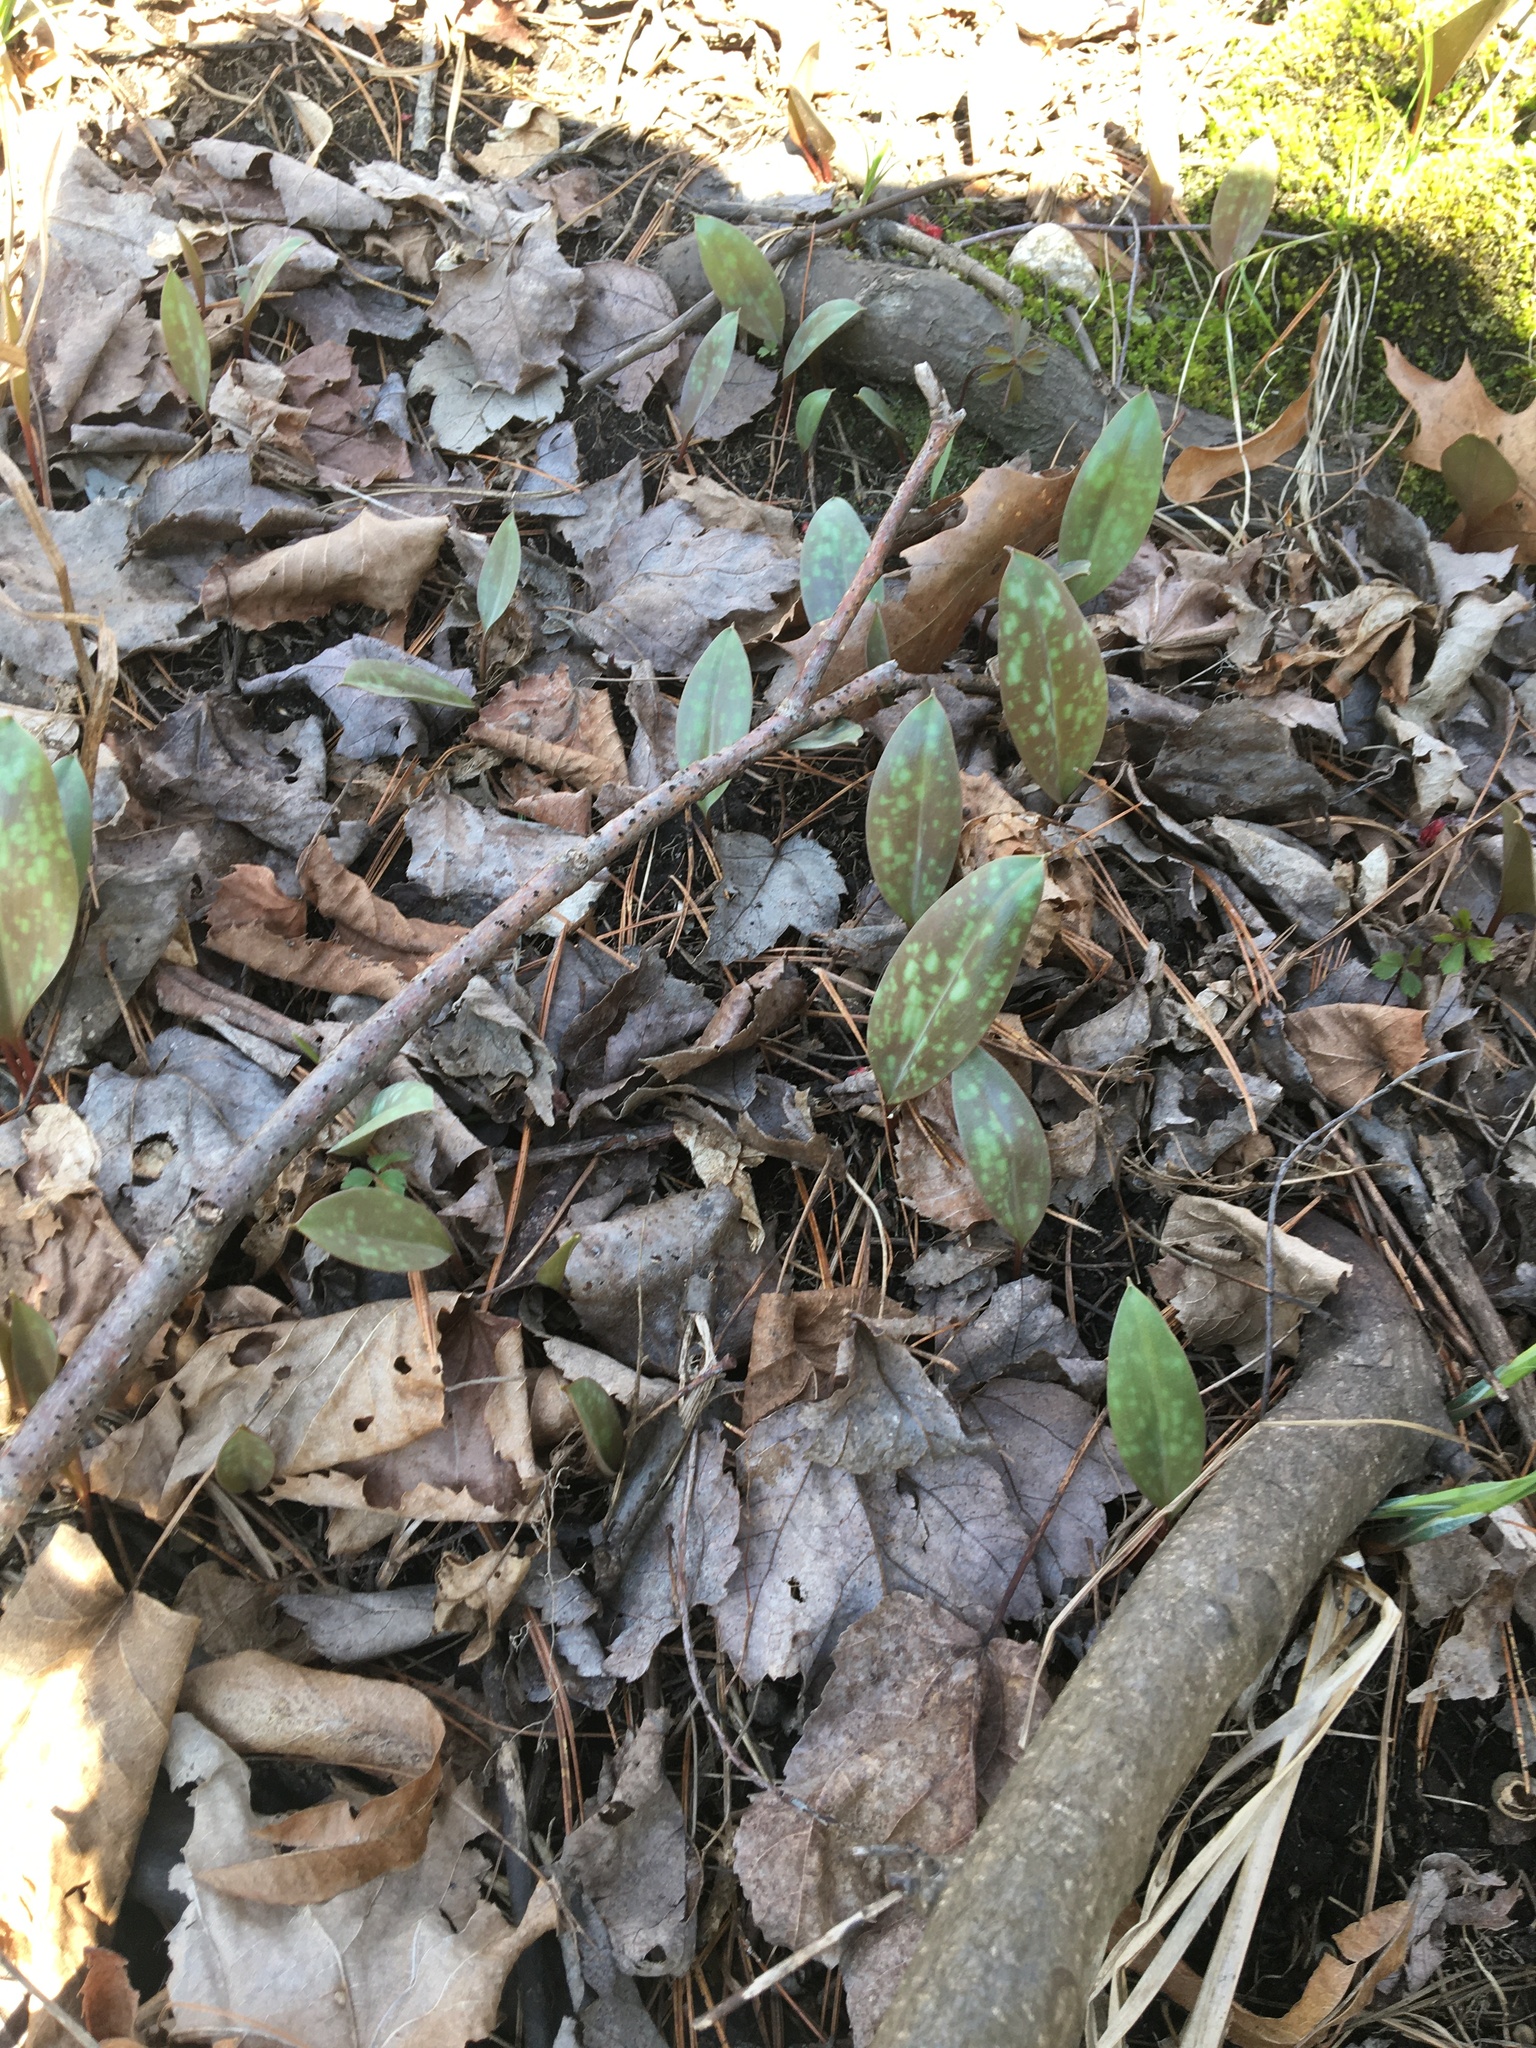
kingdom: Plantae
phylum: Tracheophyta
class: Liliopsida
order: Liliales
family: Liliaceae
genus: Erythronium
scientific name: Erythronium americanum
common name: Yellow adder's-tongue
